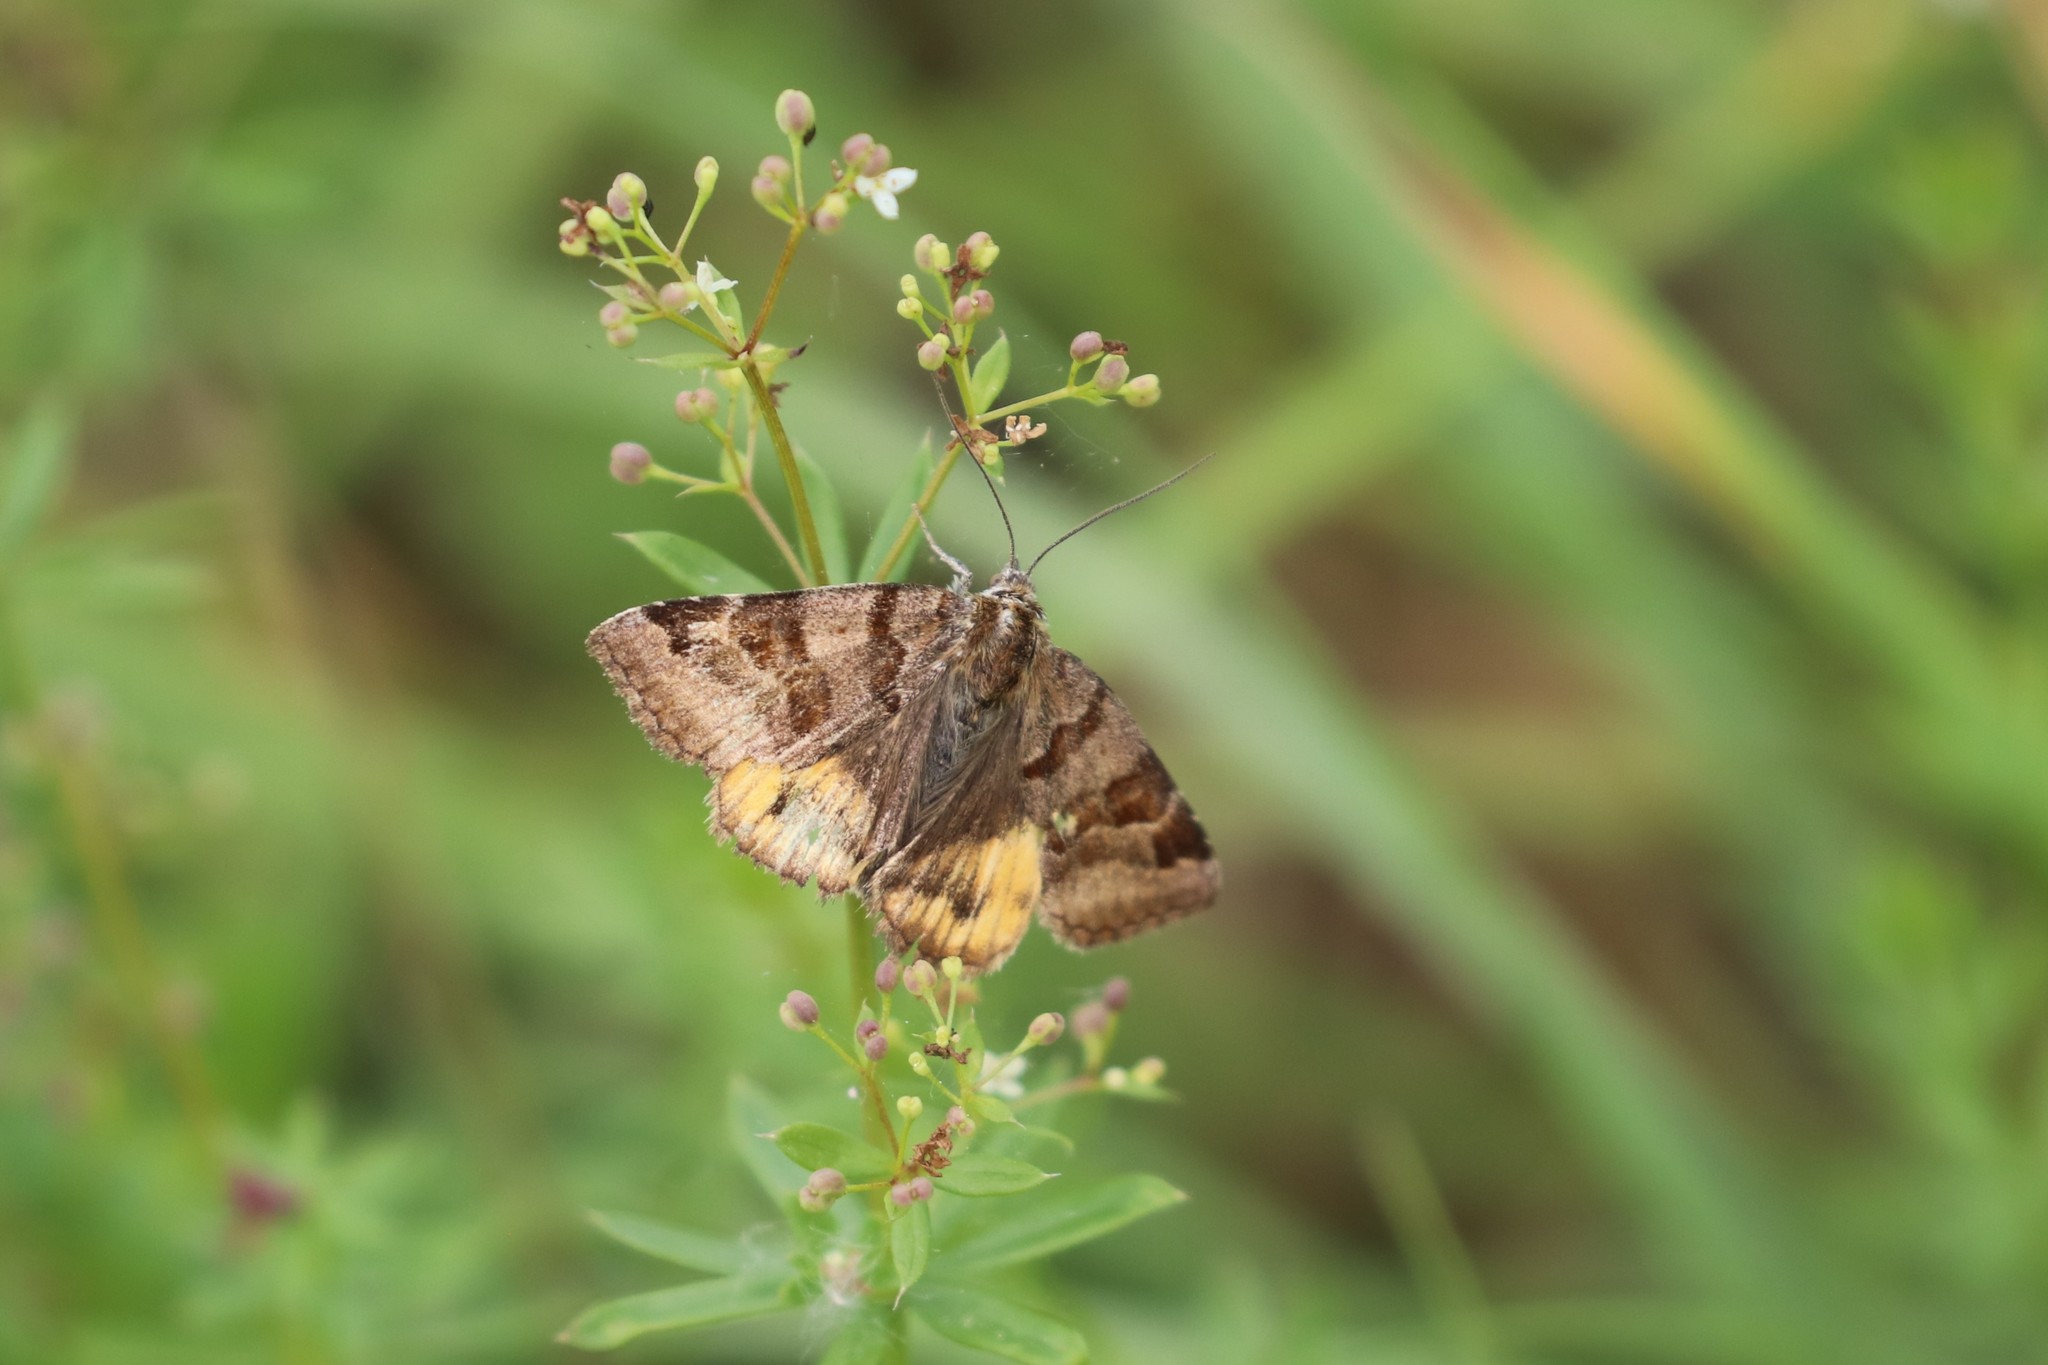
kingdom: Animalia
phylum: Arthropoda
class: Insecta
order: Lepidoptera
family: Erebidae
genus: Euclidia
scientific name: Euclidia glyphica
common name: Burnet companion
